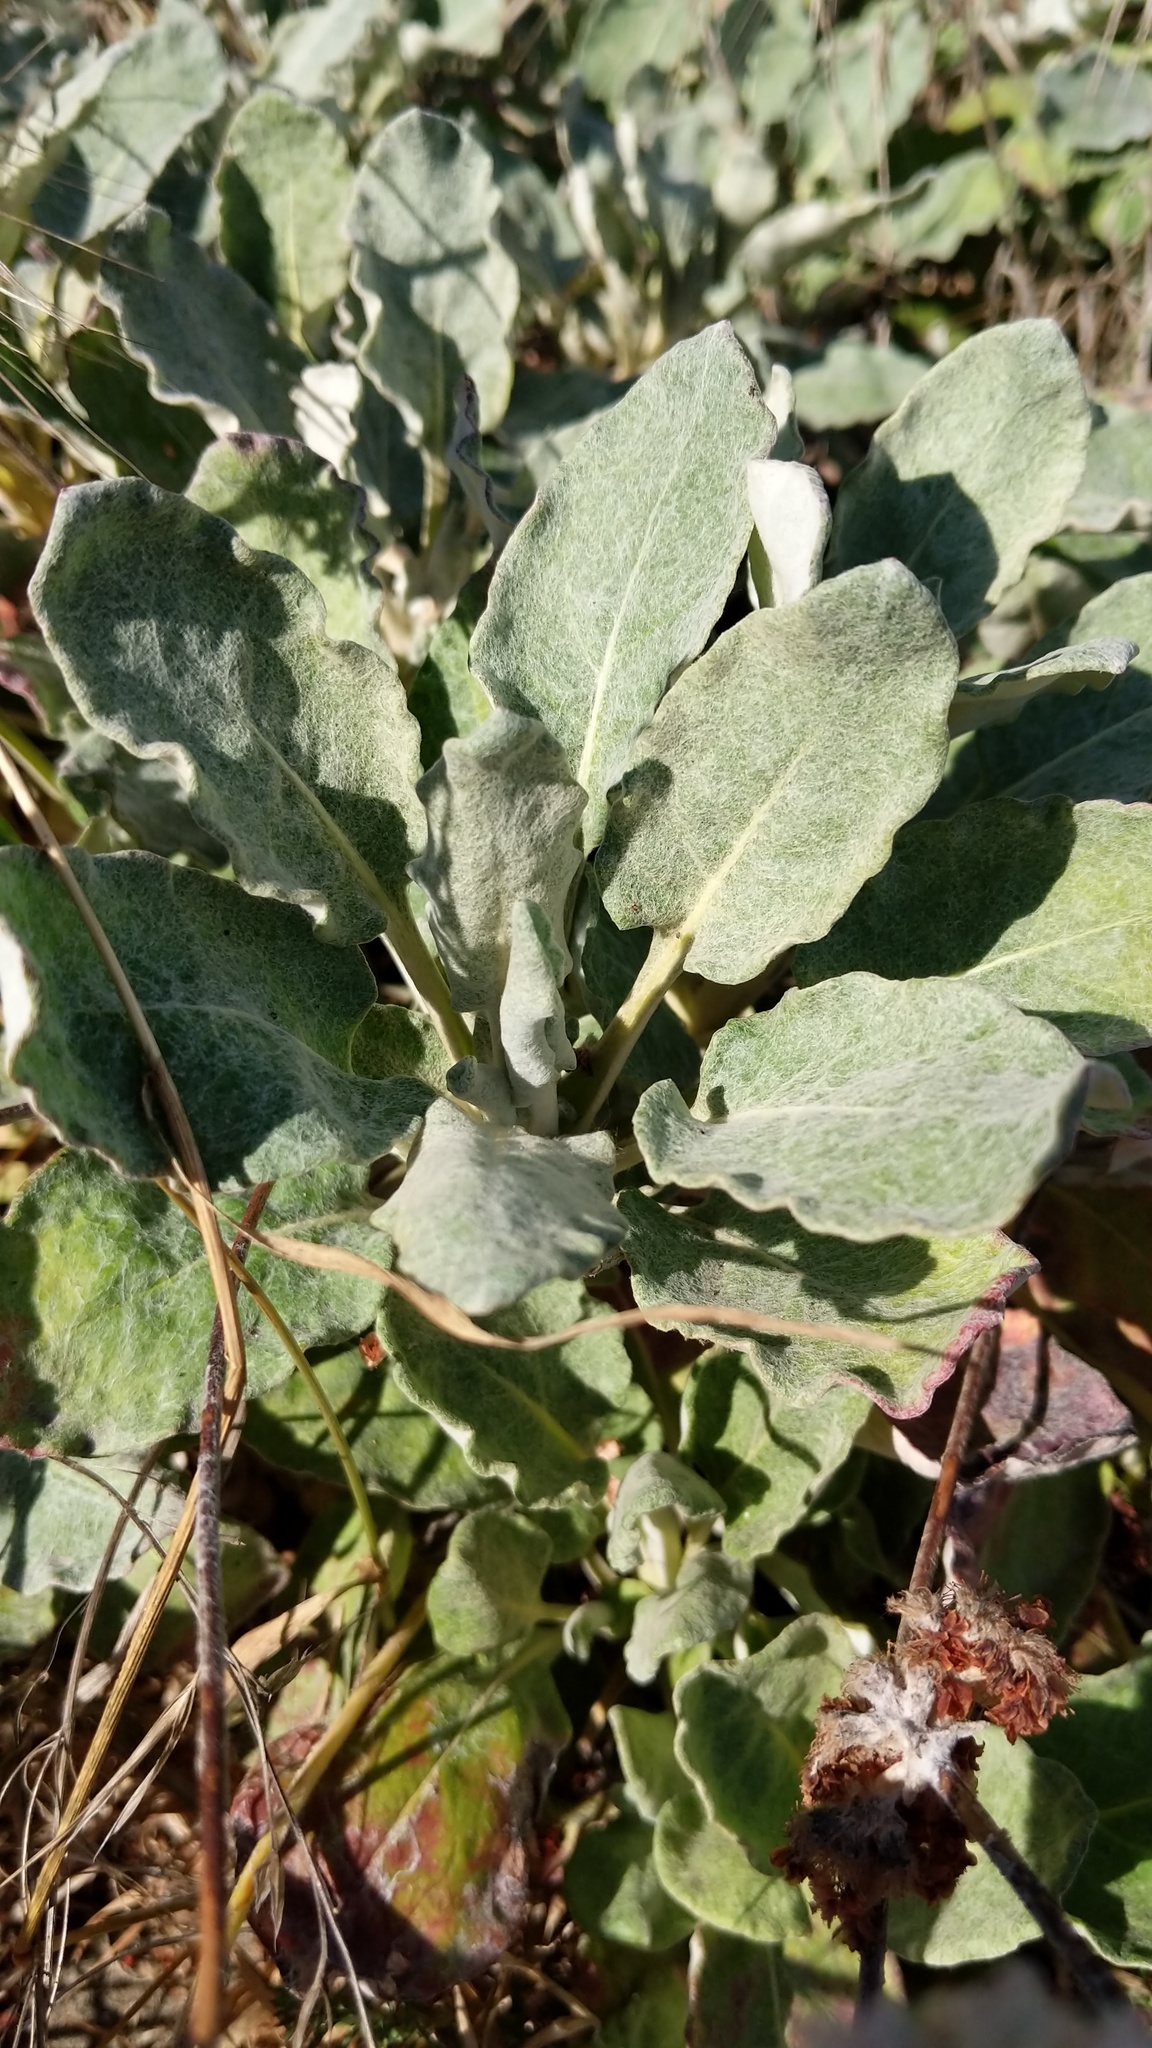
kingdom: Plantae
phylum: Tracheophyta
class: Magnoliopsida
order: Caryophyllales
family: Polygonaceae
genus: Eriogonum
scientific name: Eriogonum latifolium
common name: Seaside wild buckwheat
